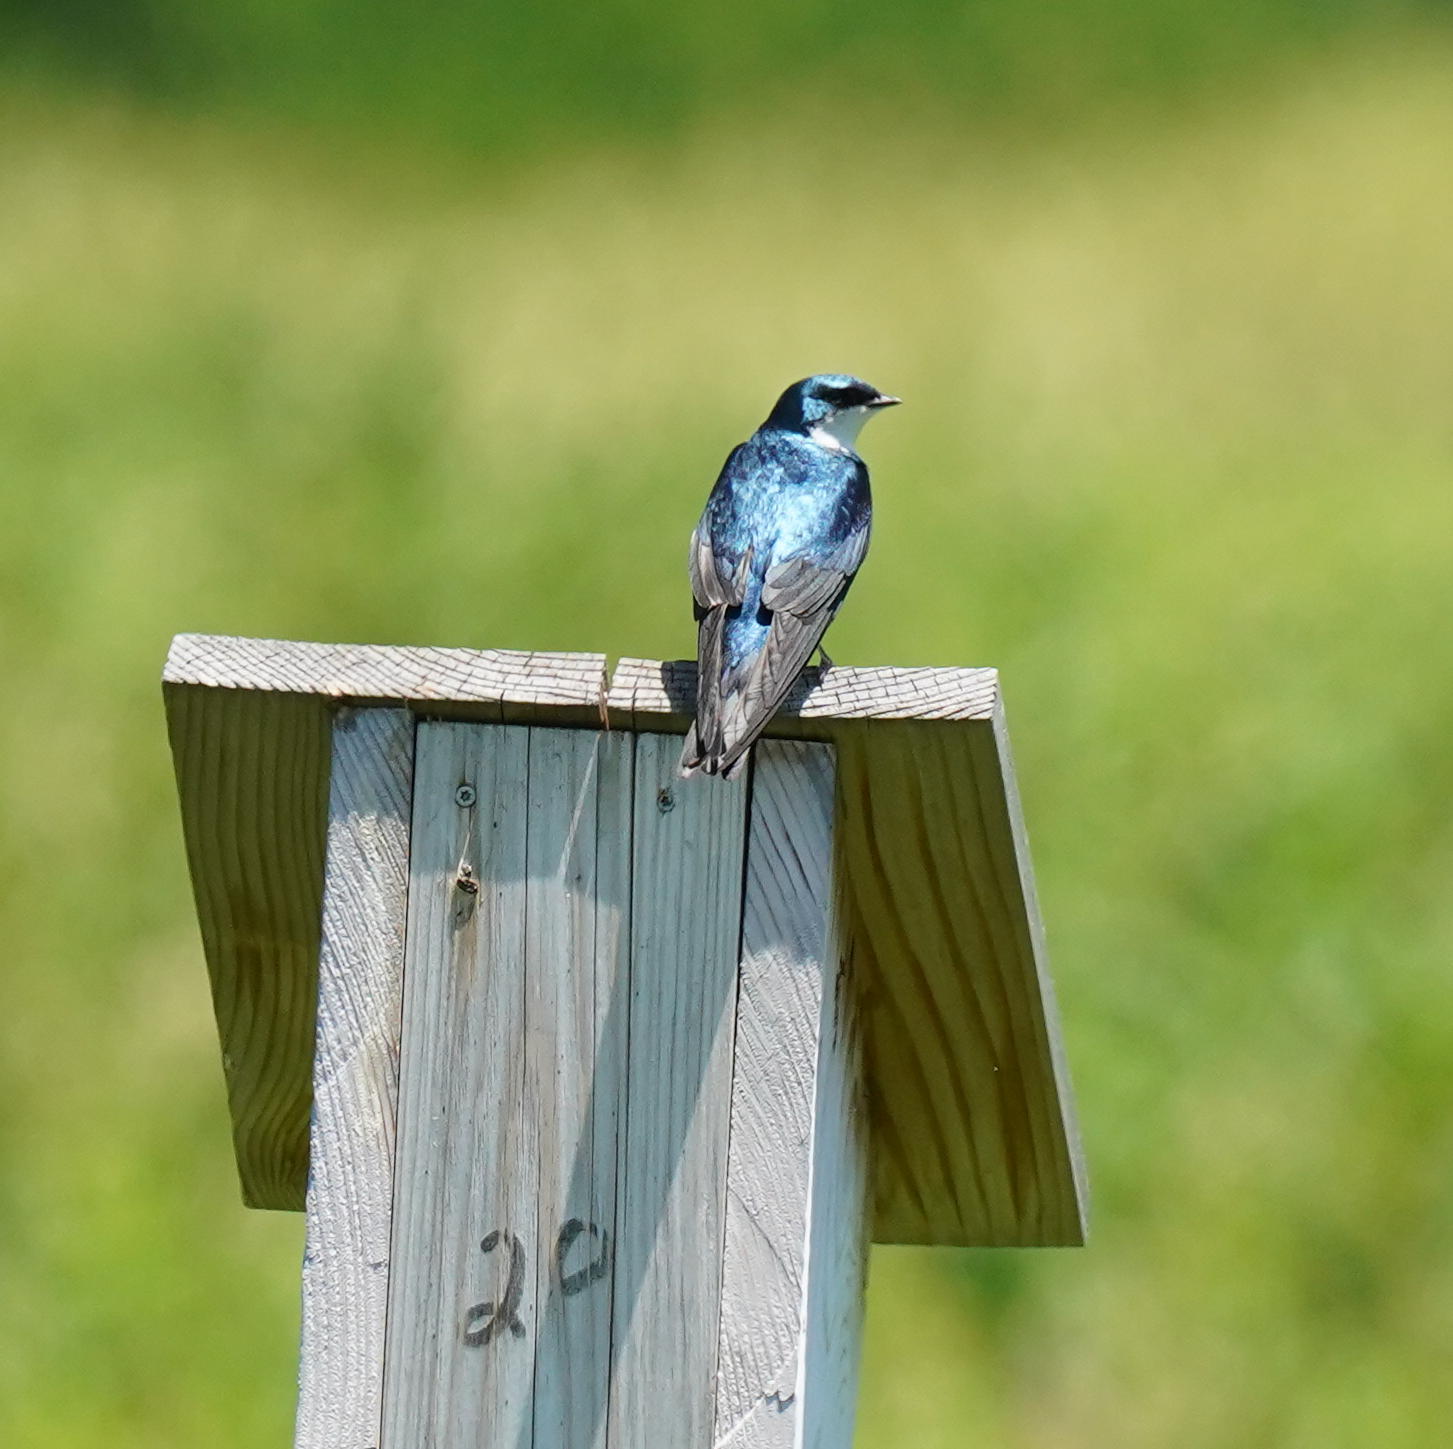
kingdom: Animalia
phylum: Chordata
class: Aves
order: Passeriformes
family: Hirundinidae
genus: Tachycineta
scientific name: Tachycineta bicolor
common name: Tree swallow
